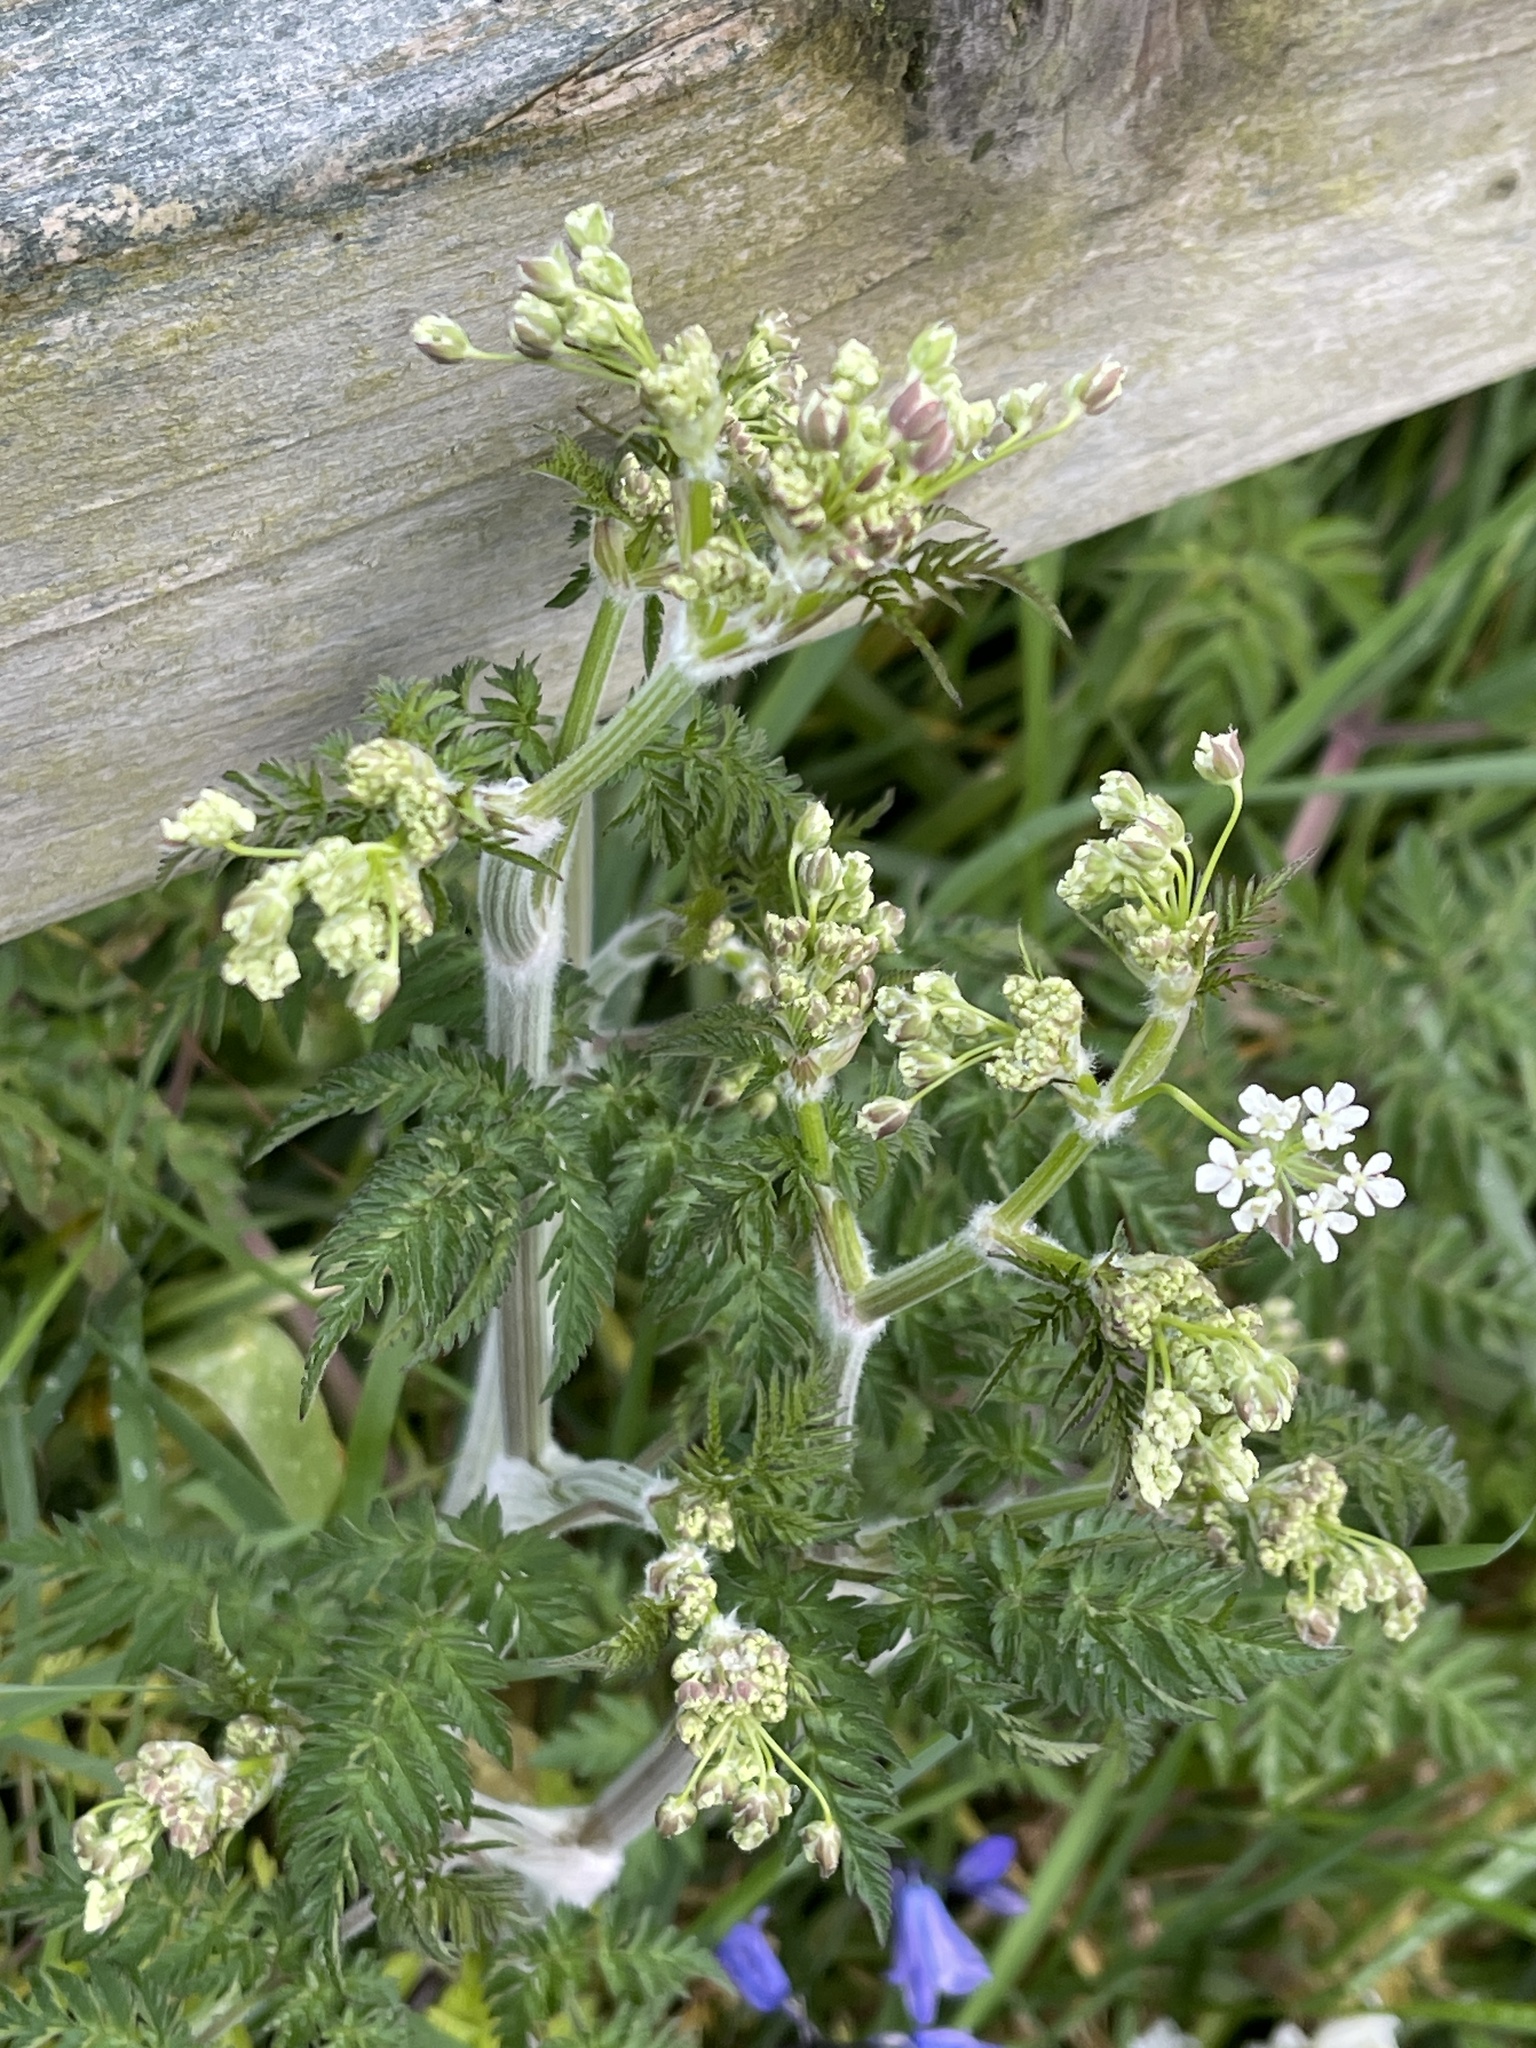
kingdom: Plantae
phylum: Tracheophyta
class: Magnoliopsida
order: Apiales
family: Apiaceae
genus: Anthriscus
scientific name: Anthriscus sylvestris
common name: Cow parsley
